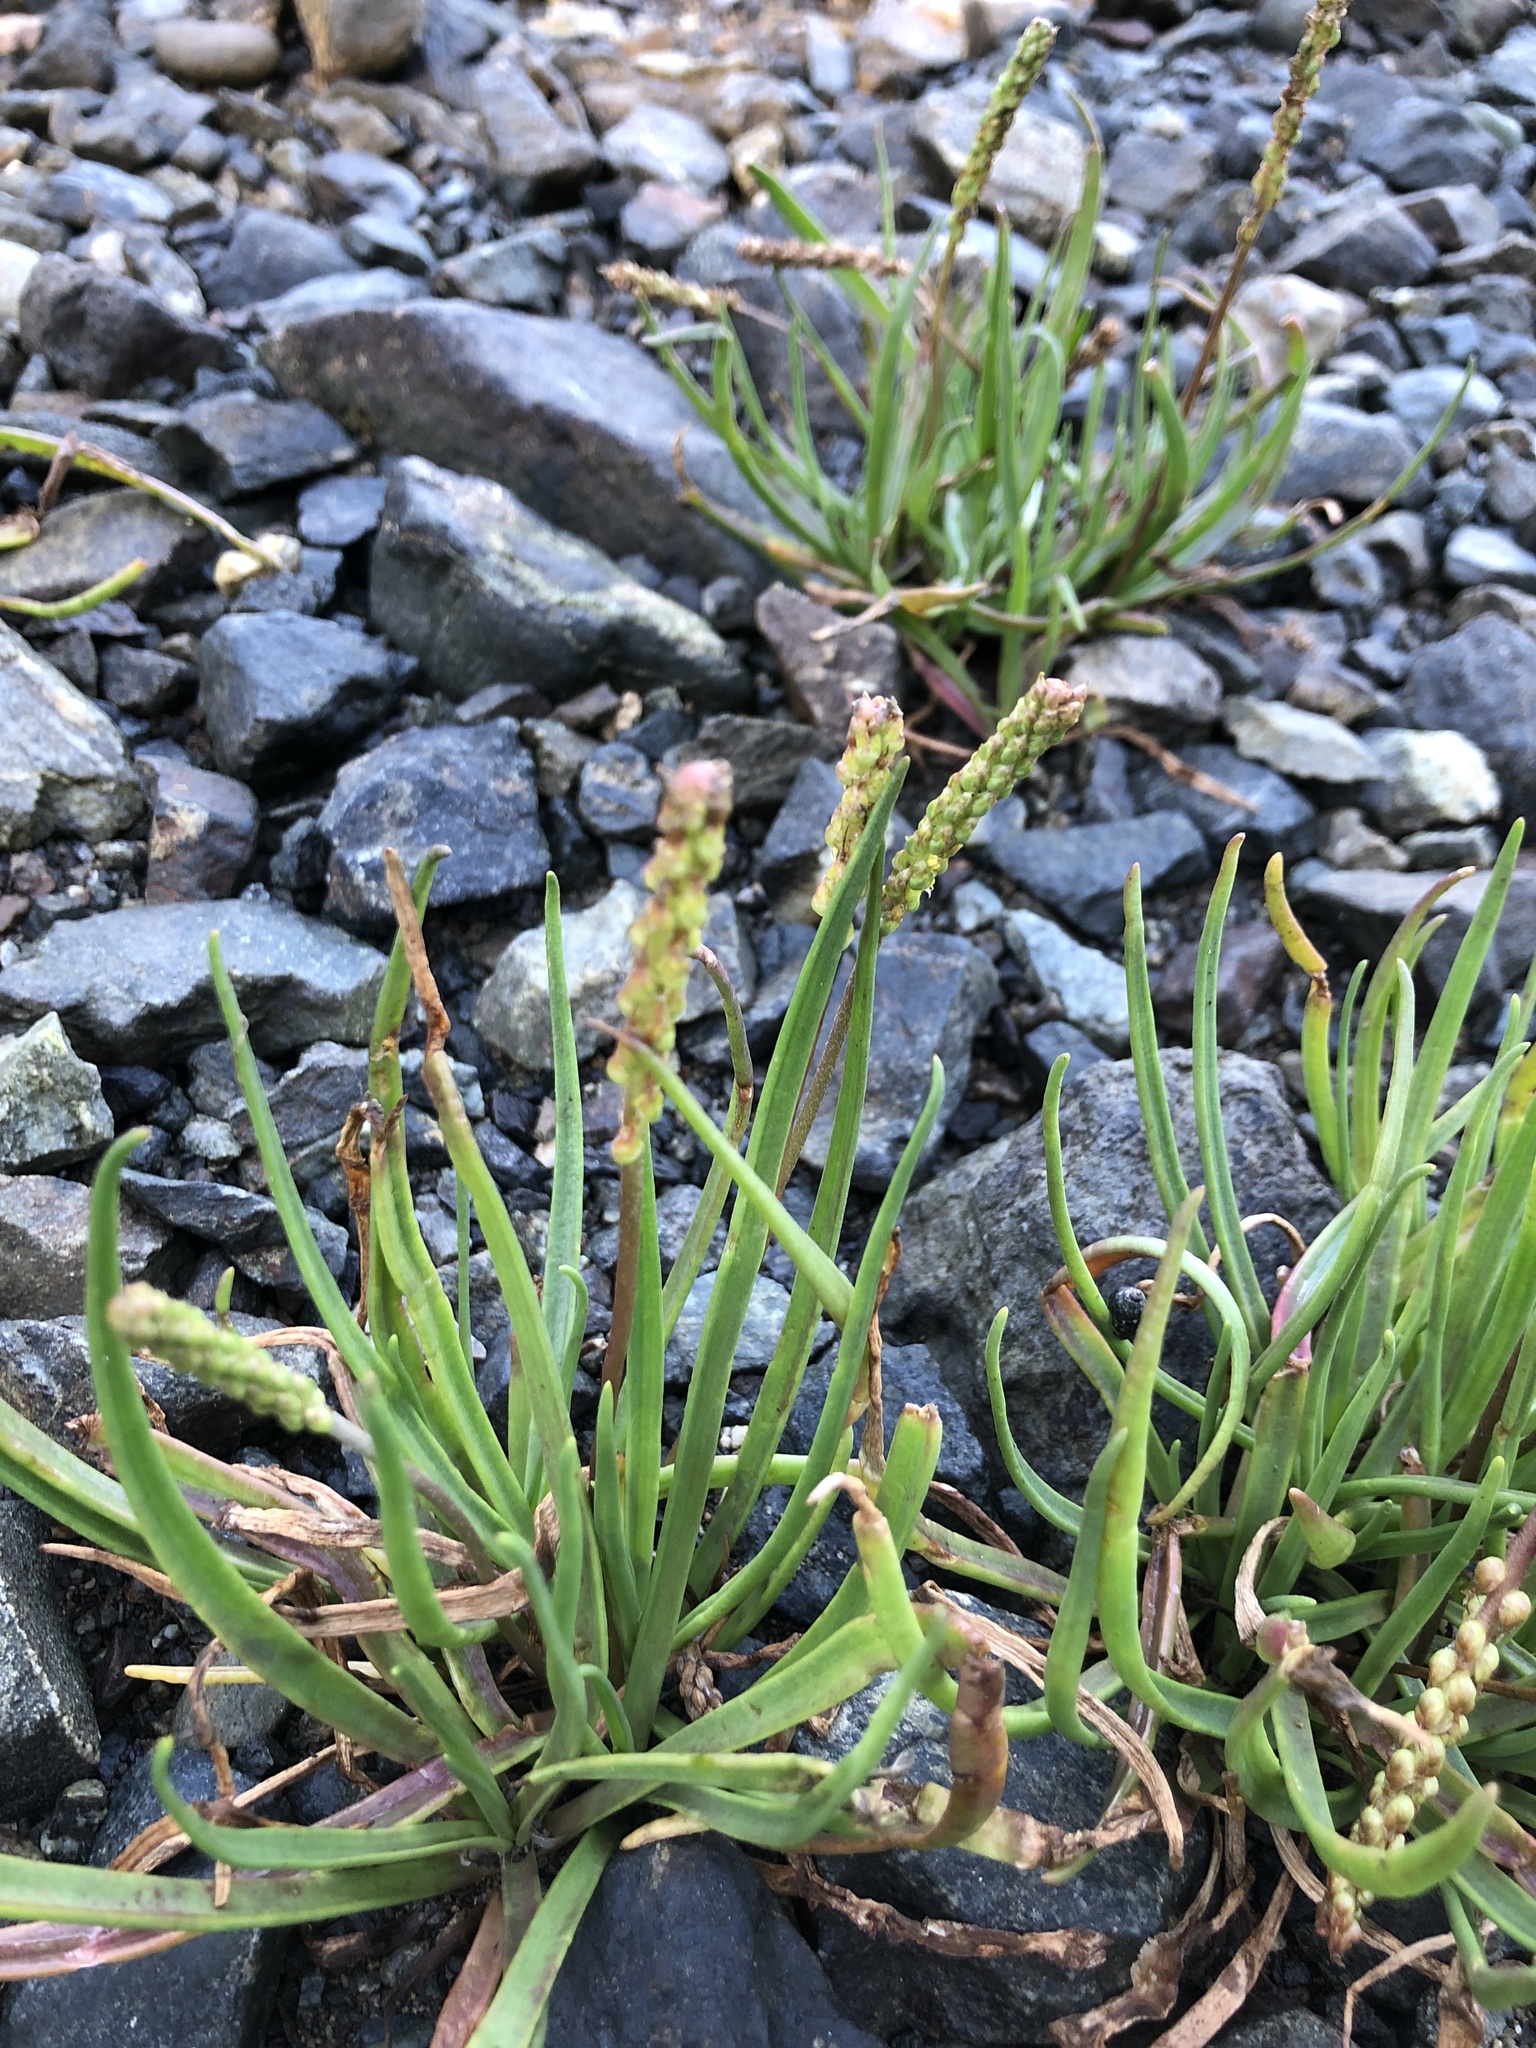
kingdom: Plantae
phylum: Tracheophyta
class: Magnoliopsida
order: Lamiales
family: Plantaginaceae
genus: Plantago
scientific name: Plantago maritima
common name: Sea plantain
